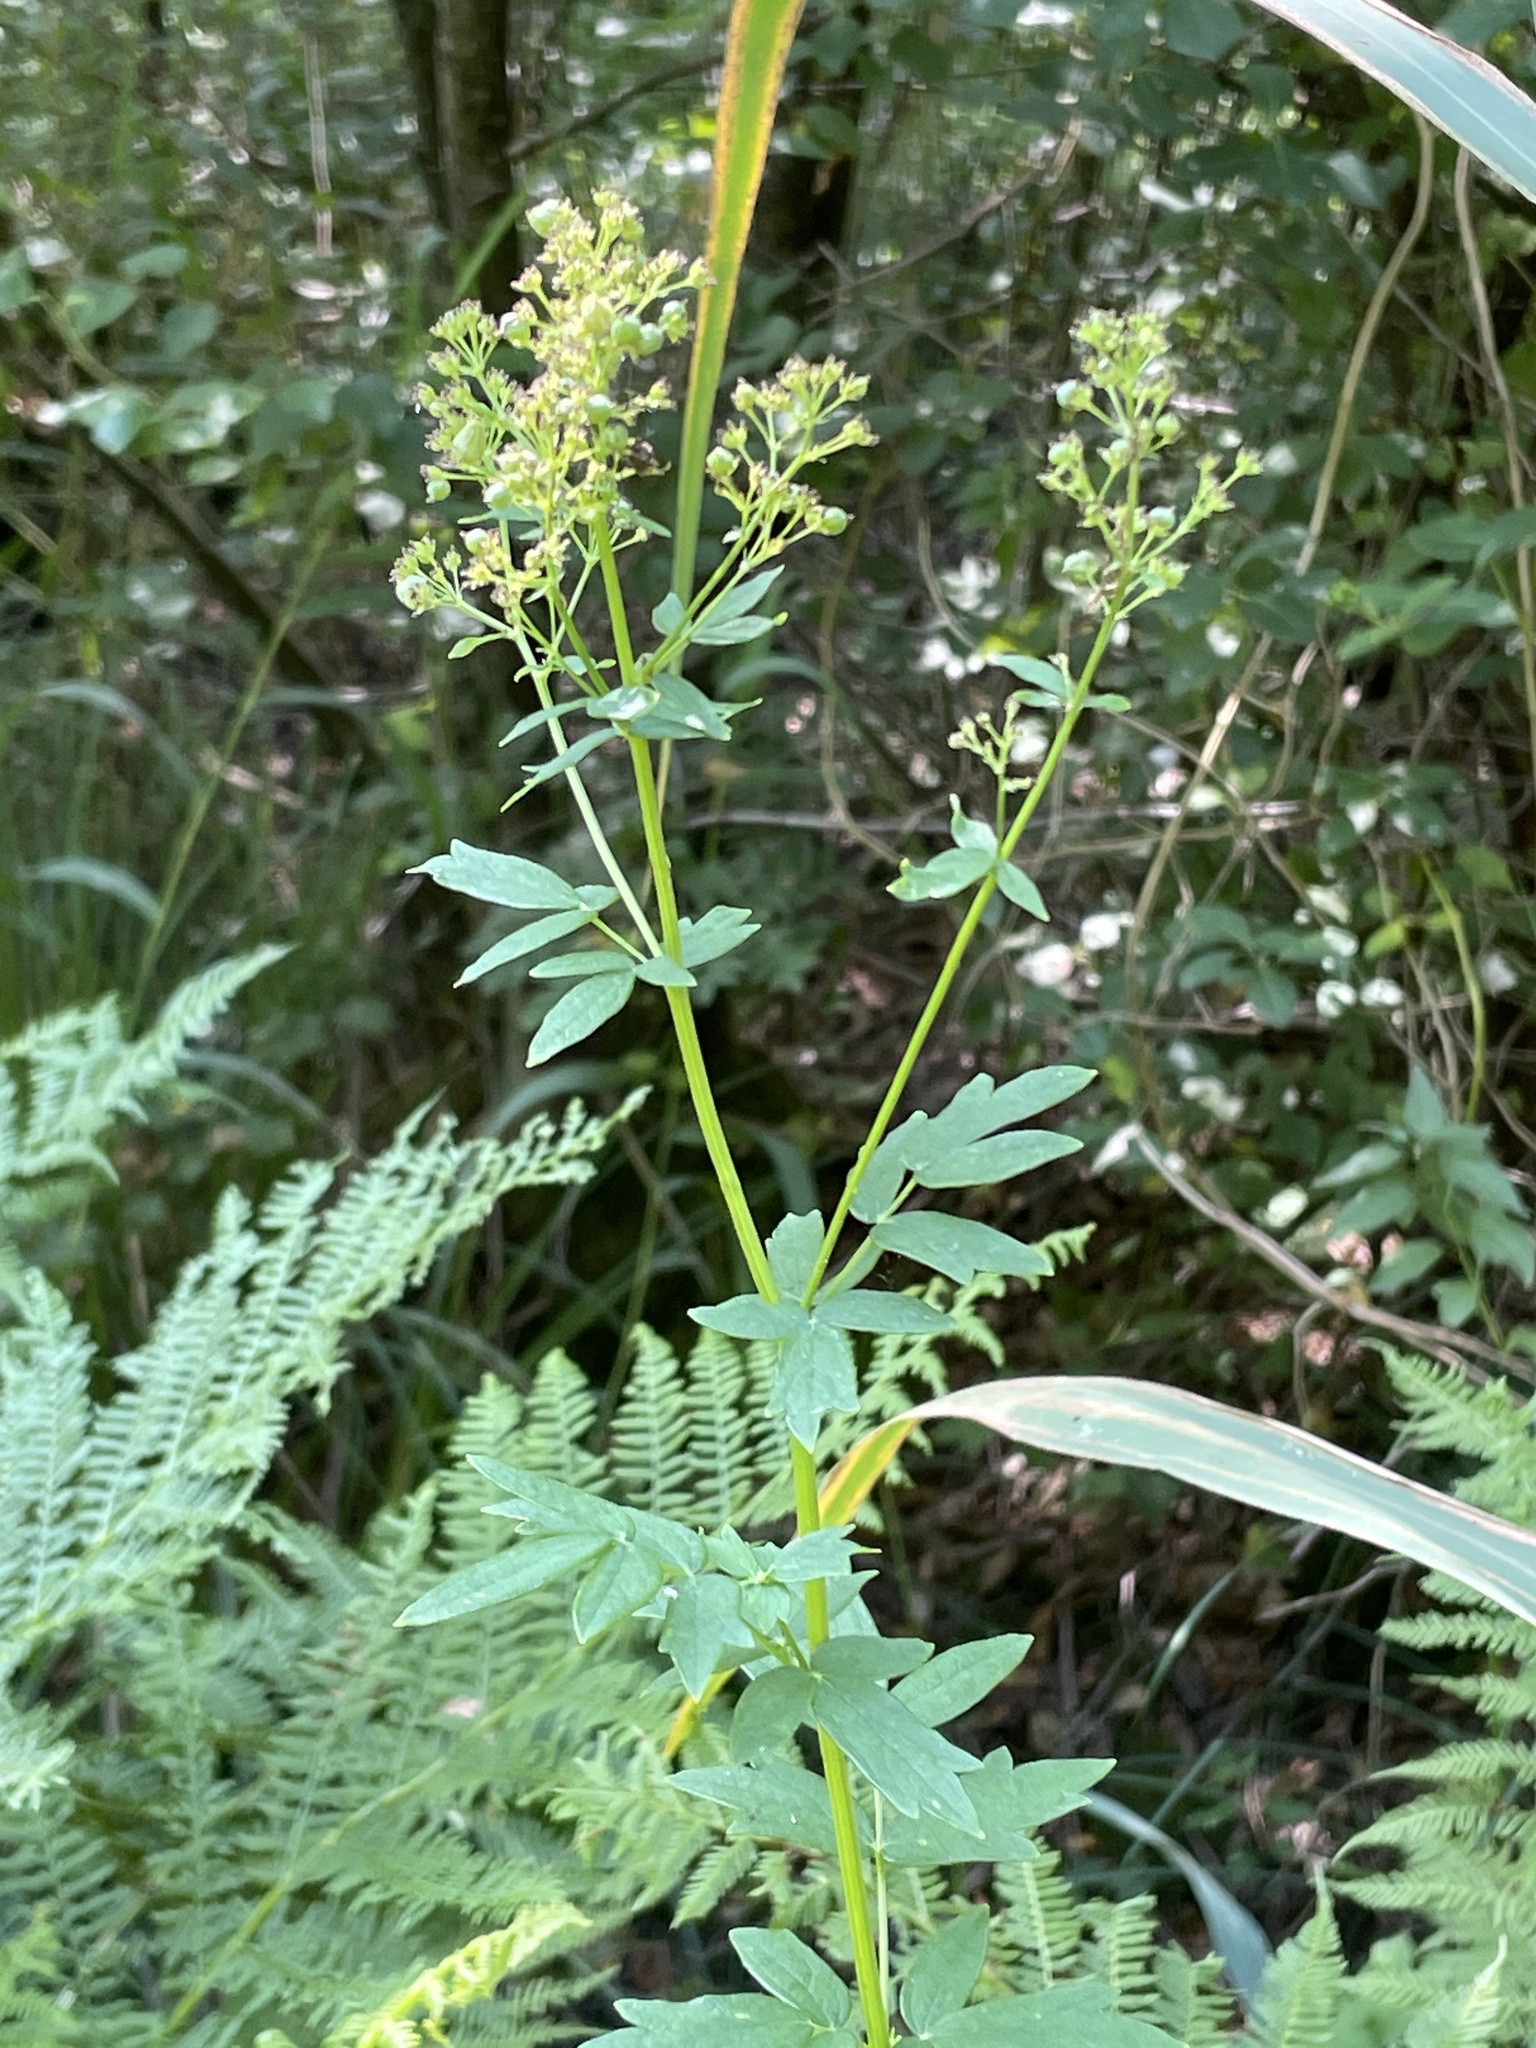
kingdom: Plantae
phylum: Tracheophyta
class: Magnoliopsida
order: Ranunculales
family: Ranunculaceae
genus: Thalictrum
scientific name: Thalictrum flavum
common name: Common meadow-rue
